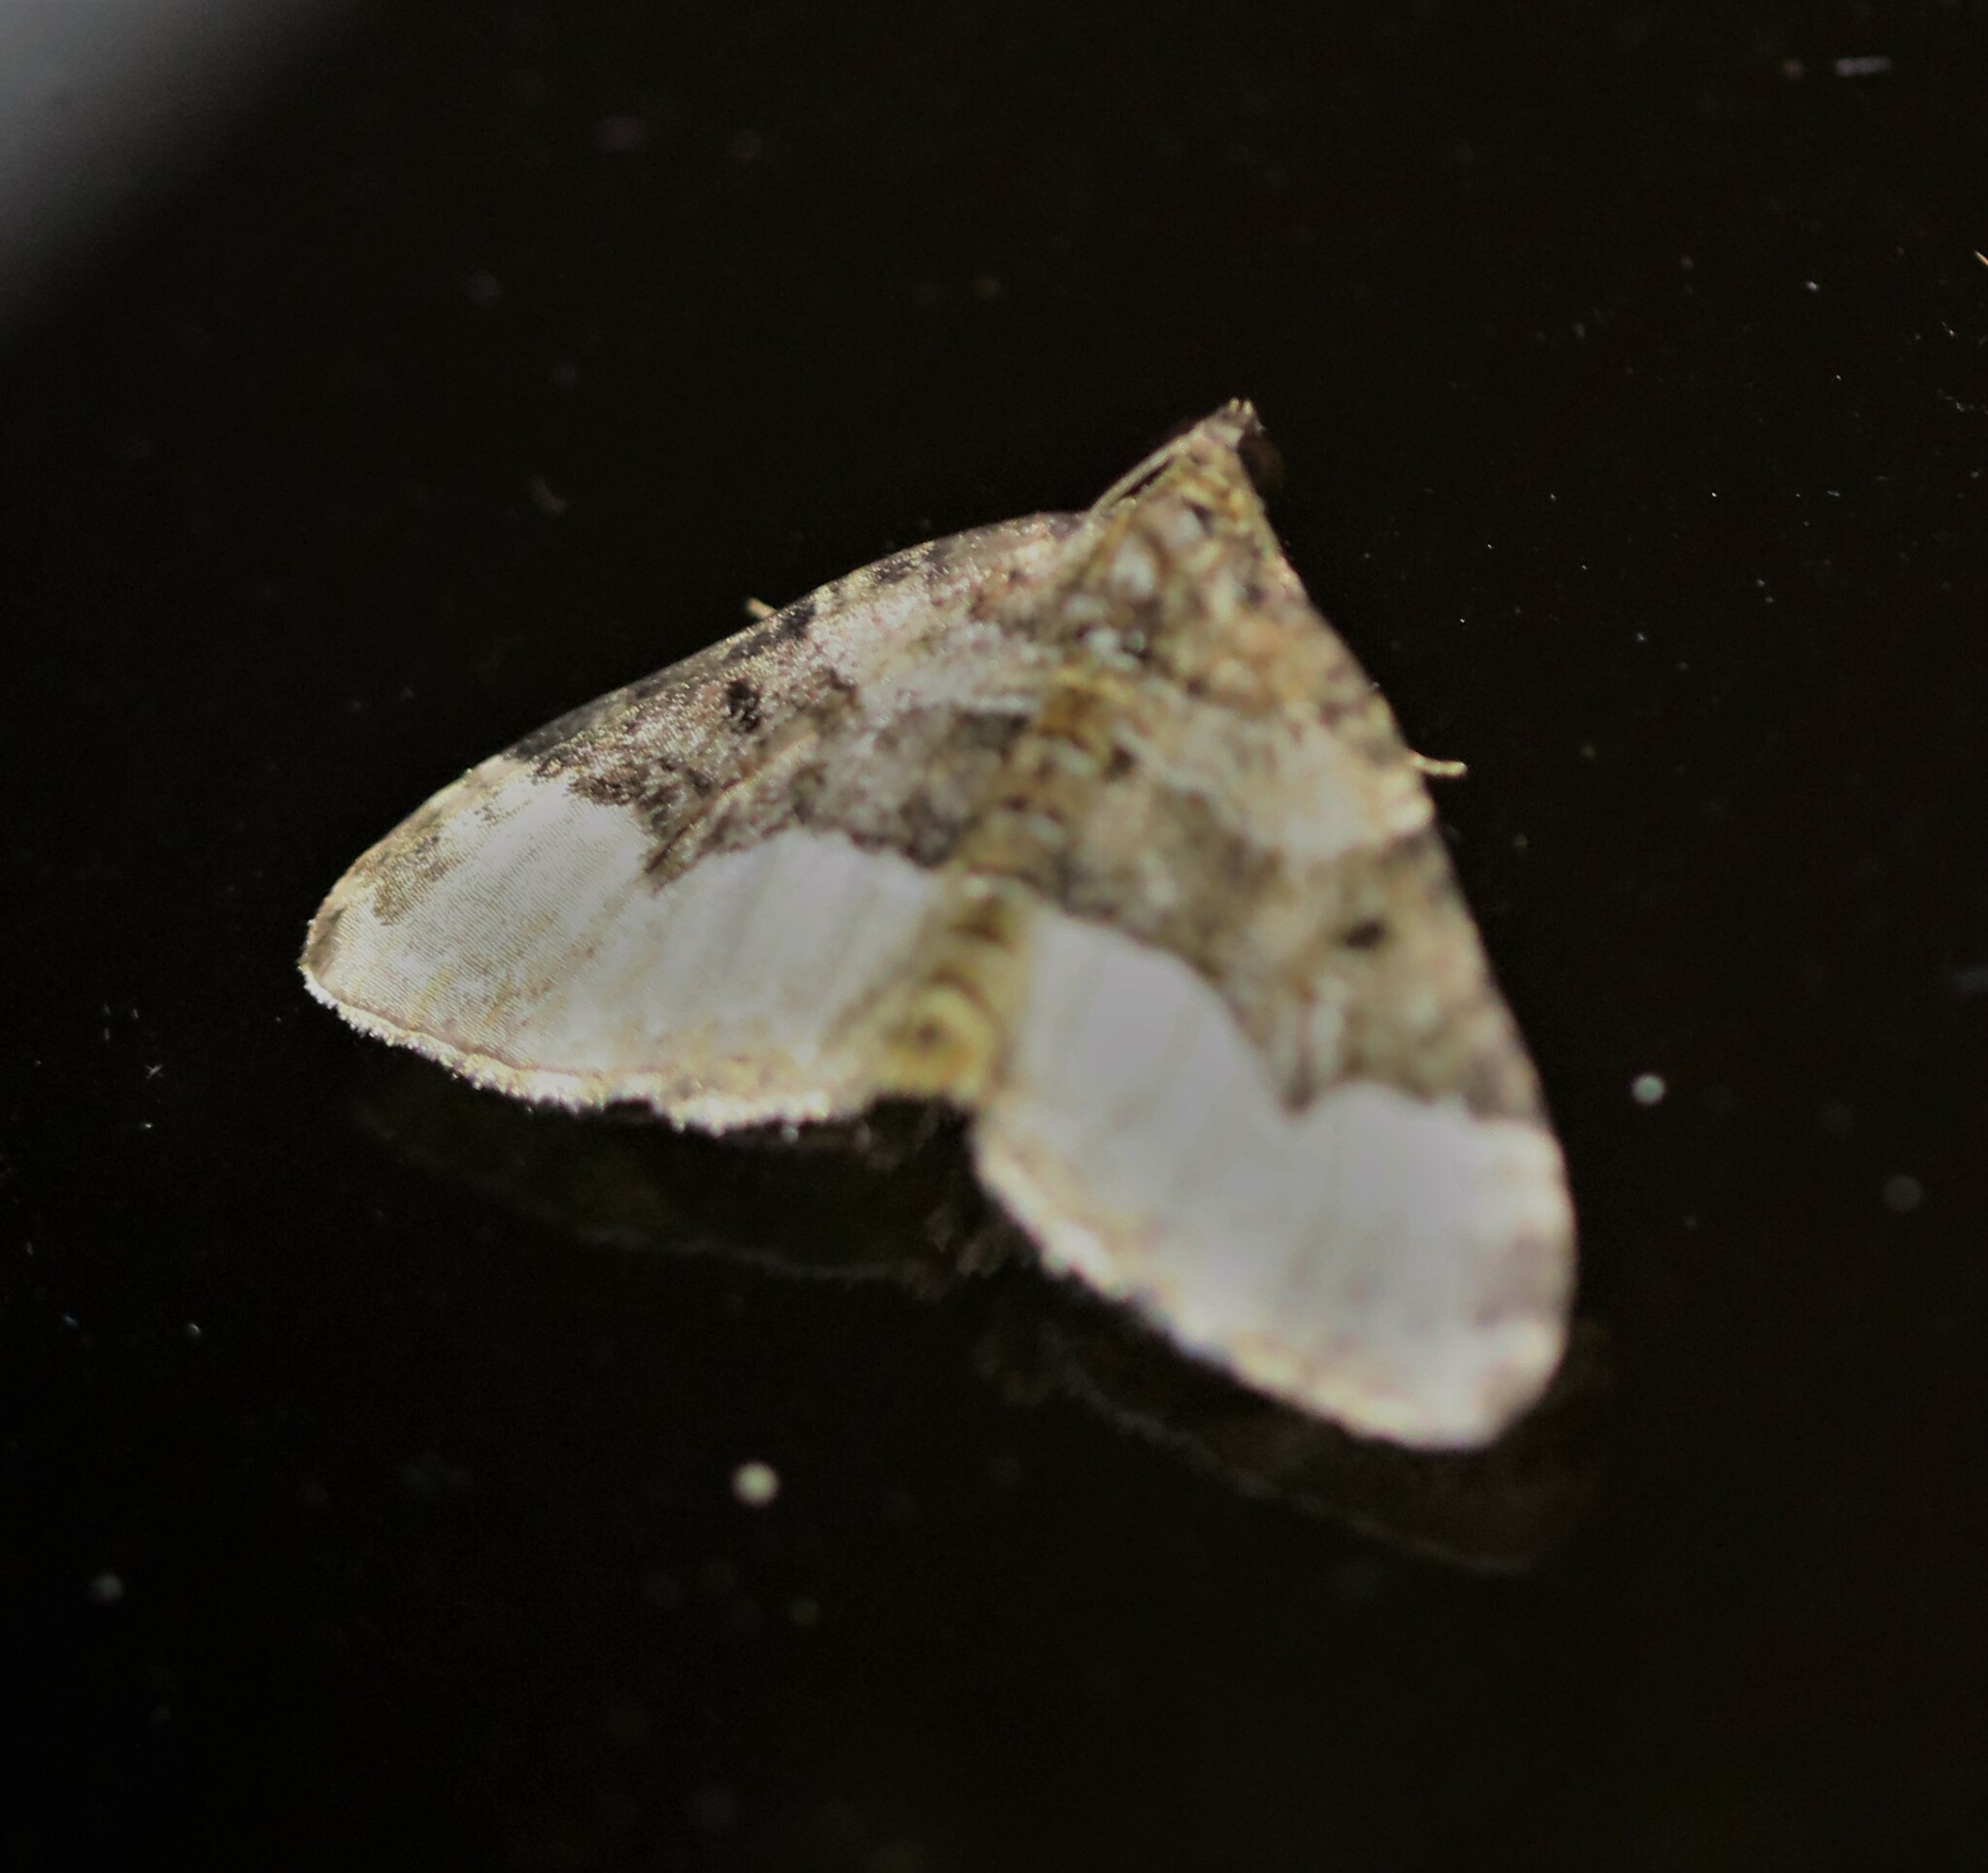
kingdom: Animalia
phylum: Arthropoda
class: Insecta
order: Lepidoptera
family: Geometridae
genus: Euphyia
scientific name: Euphyia intermediata
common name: Sharp-angled carpet
